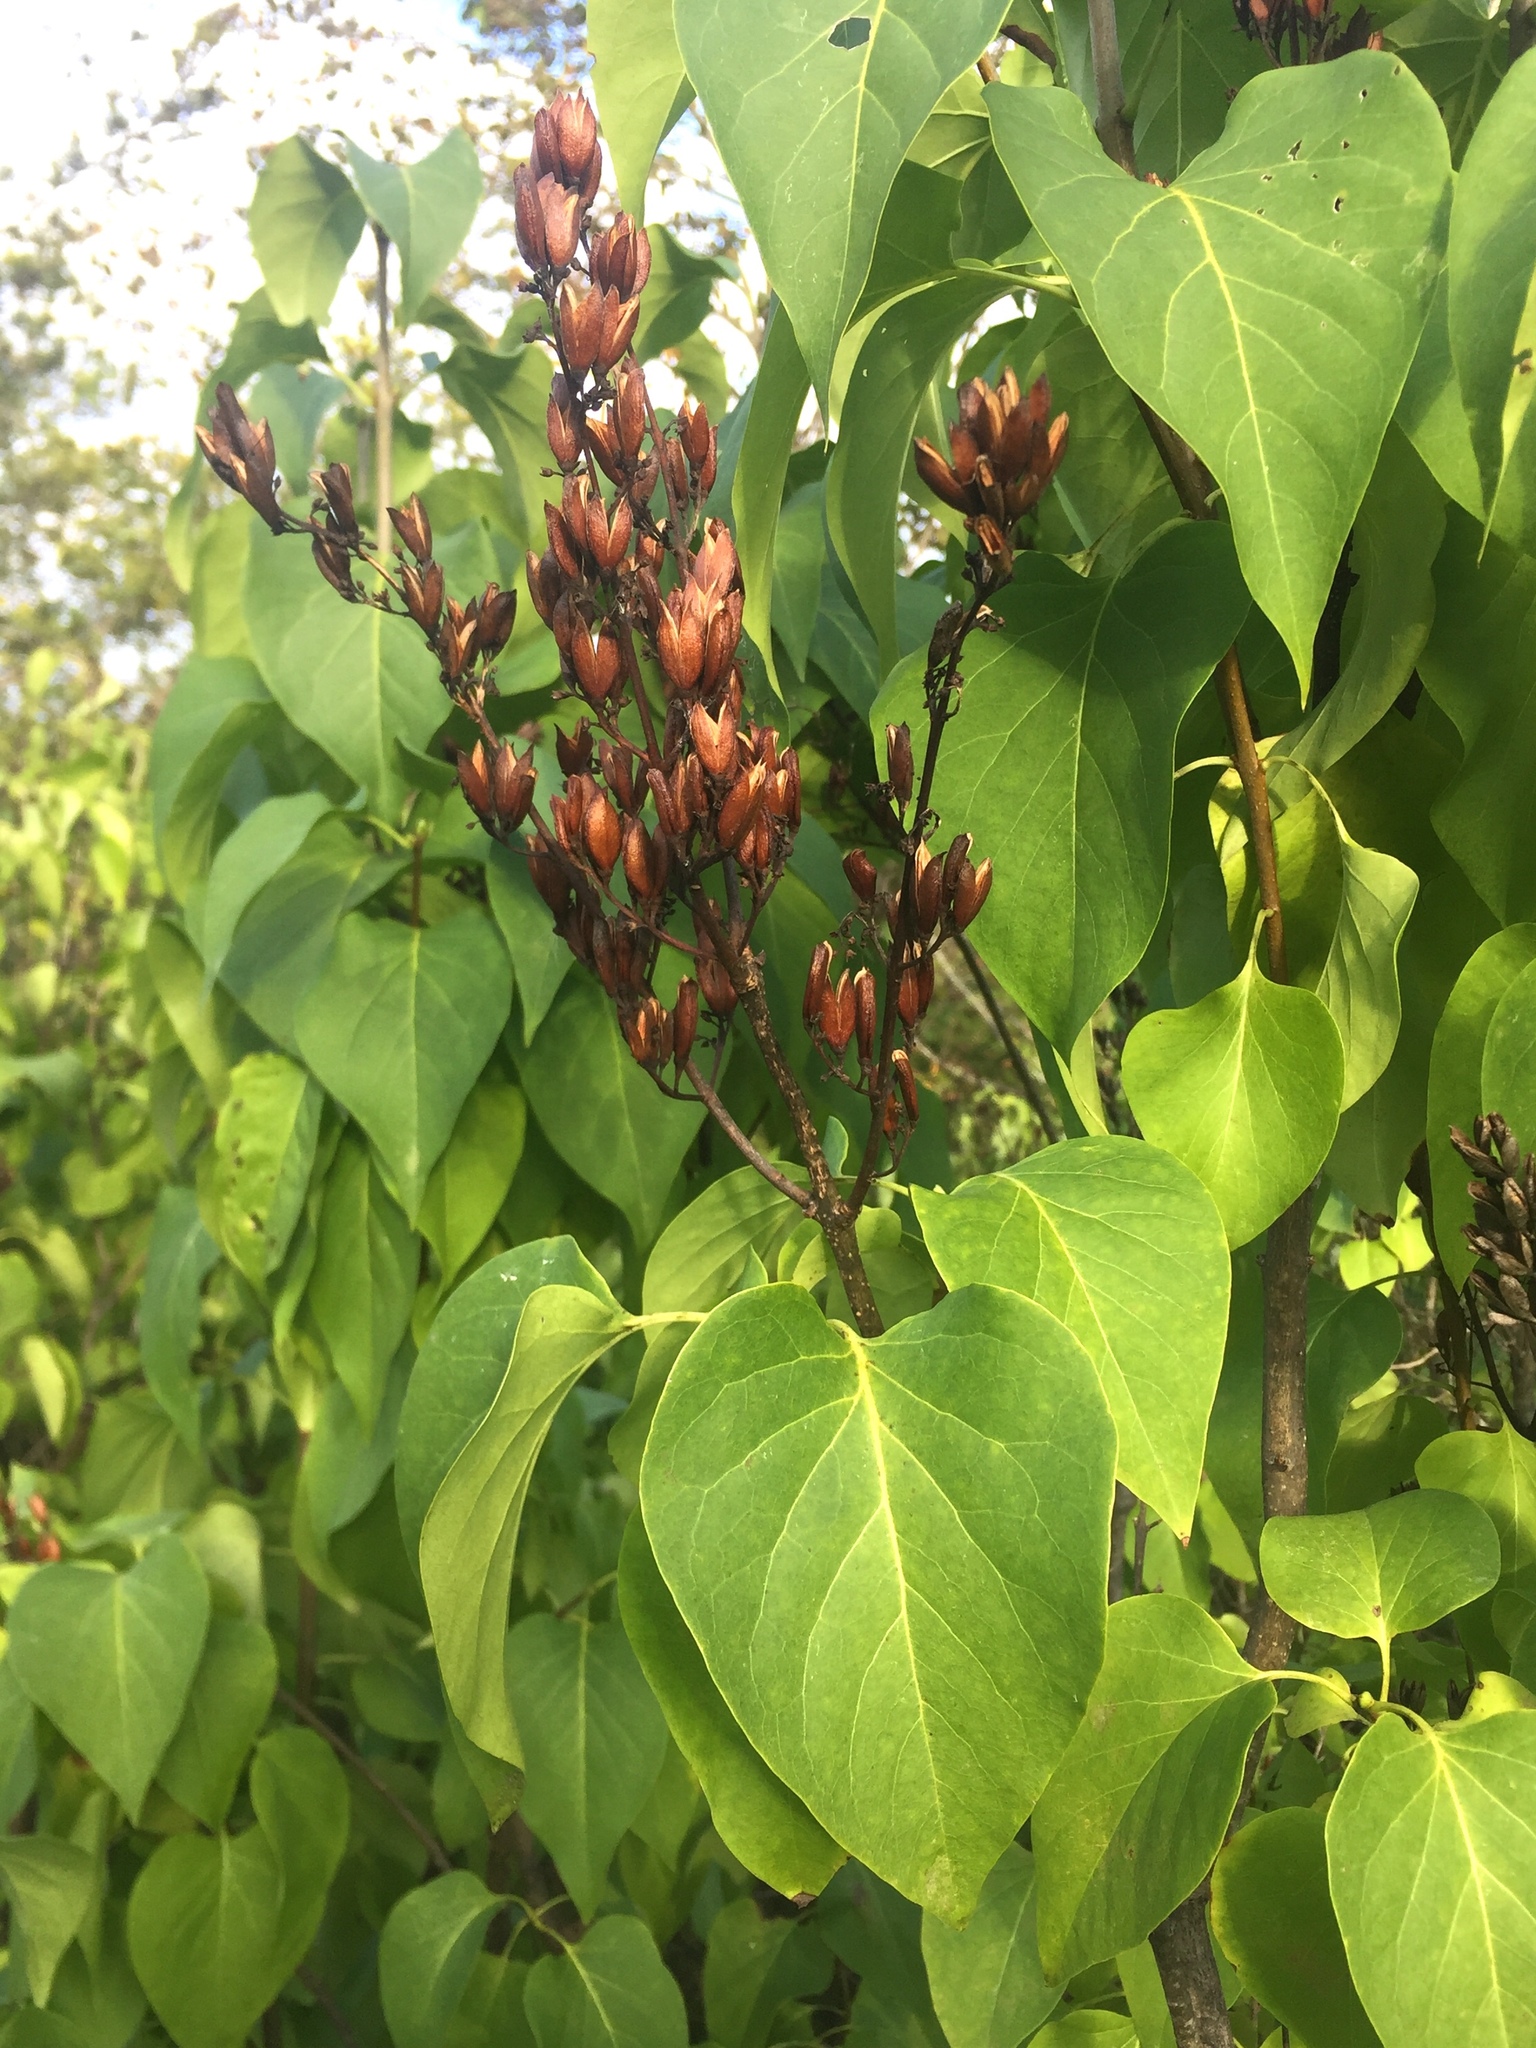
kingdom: Plantae
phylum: Tracheophyta
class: Magnoliopsida
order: Lamiales
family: Oleaceae
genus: Syringa
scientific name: Syringa vulgaris
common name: Common lilac
